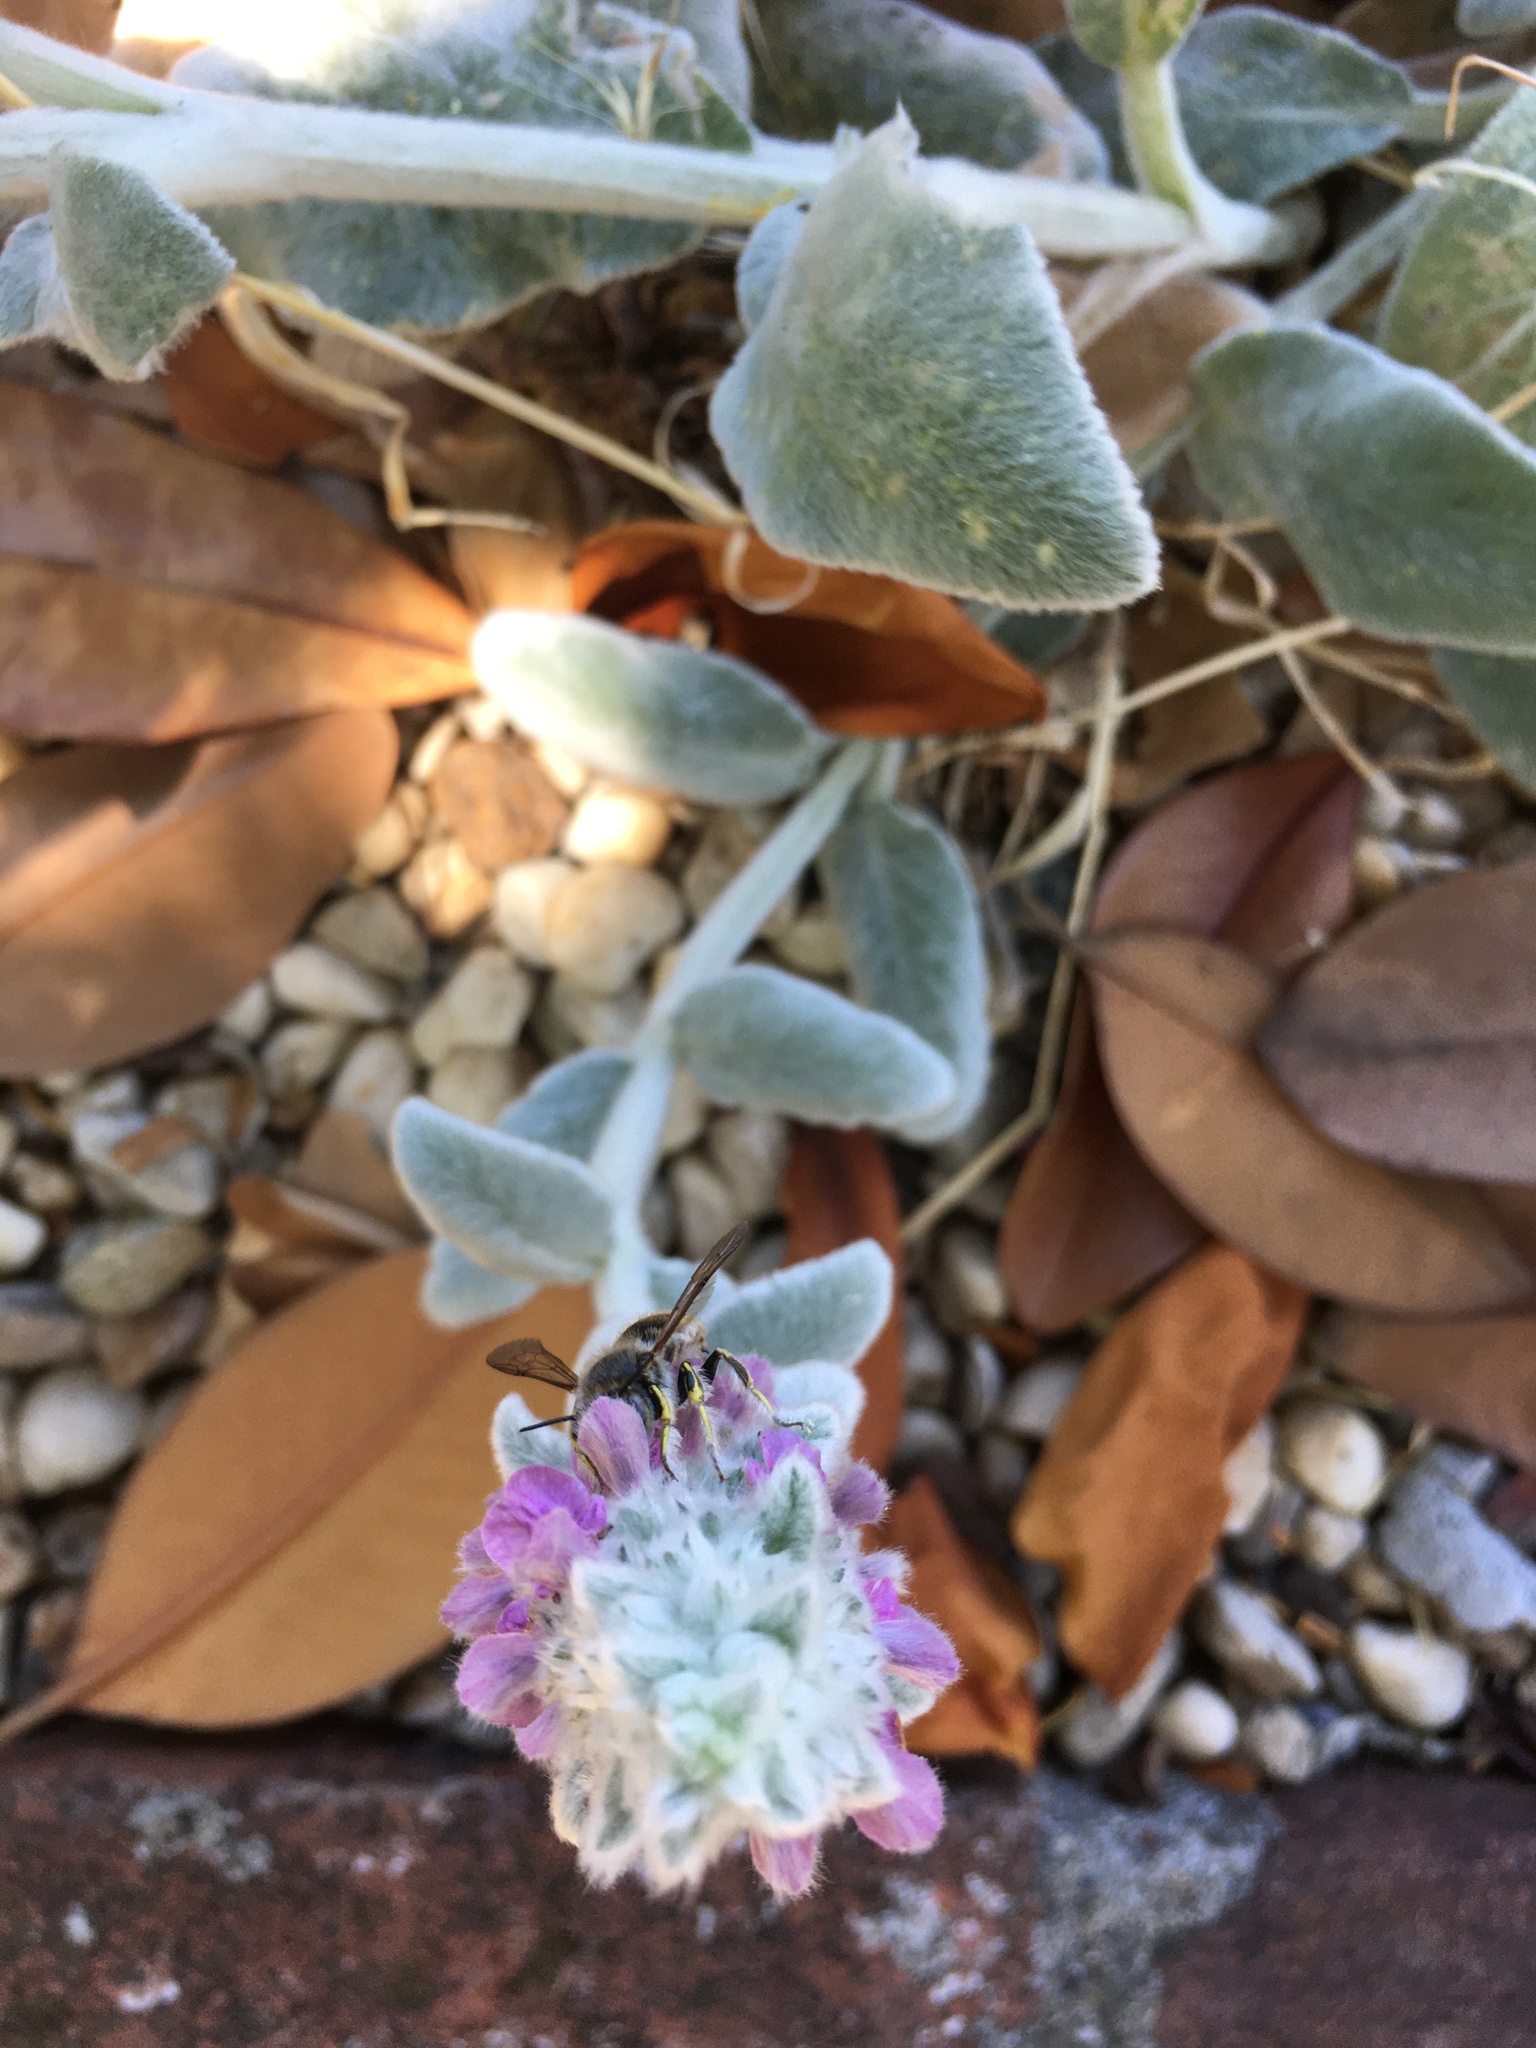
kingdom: Animalia
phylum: Arthropoda
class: Insecta
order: Hymenoptera
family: Megachilidae
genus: Anthidium
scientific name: Anthidium manicatum
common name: Wool carder bee
